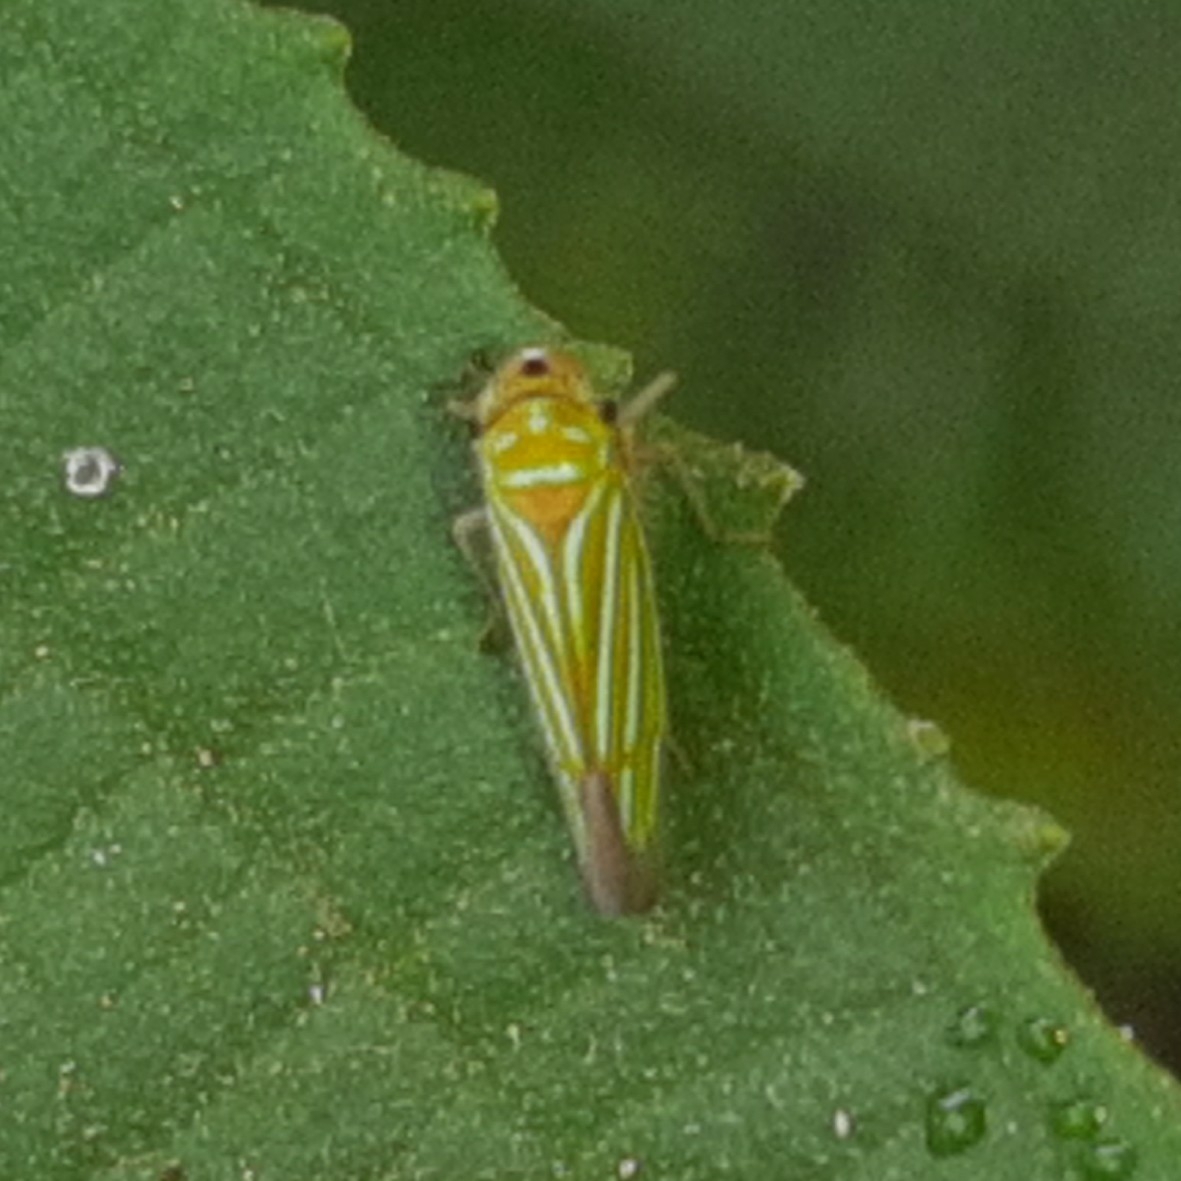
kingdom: Animalia
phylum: Arthropoda
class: Insecta
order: Hemiptera
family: Cicadellidae
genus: Chlorogonalia
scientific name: Chlorogonalia coeruleovittata
